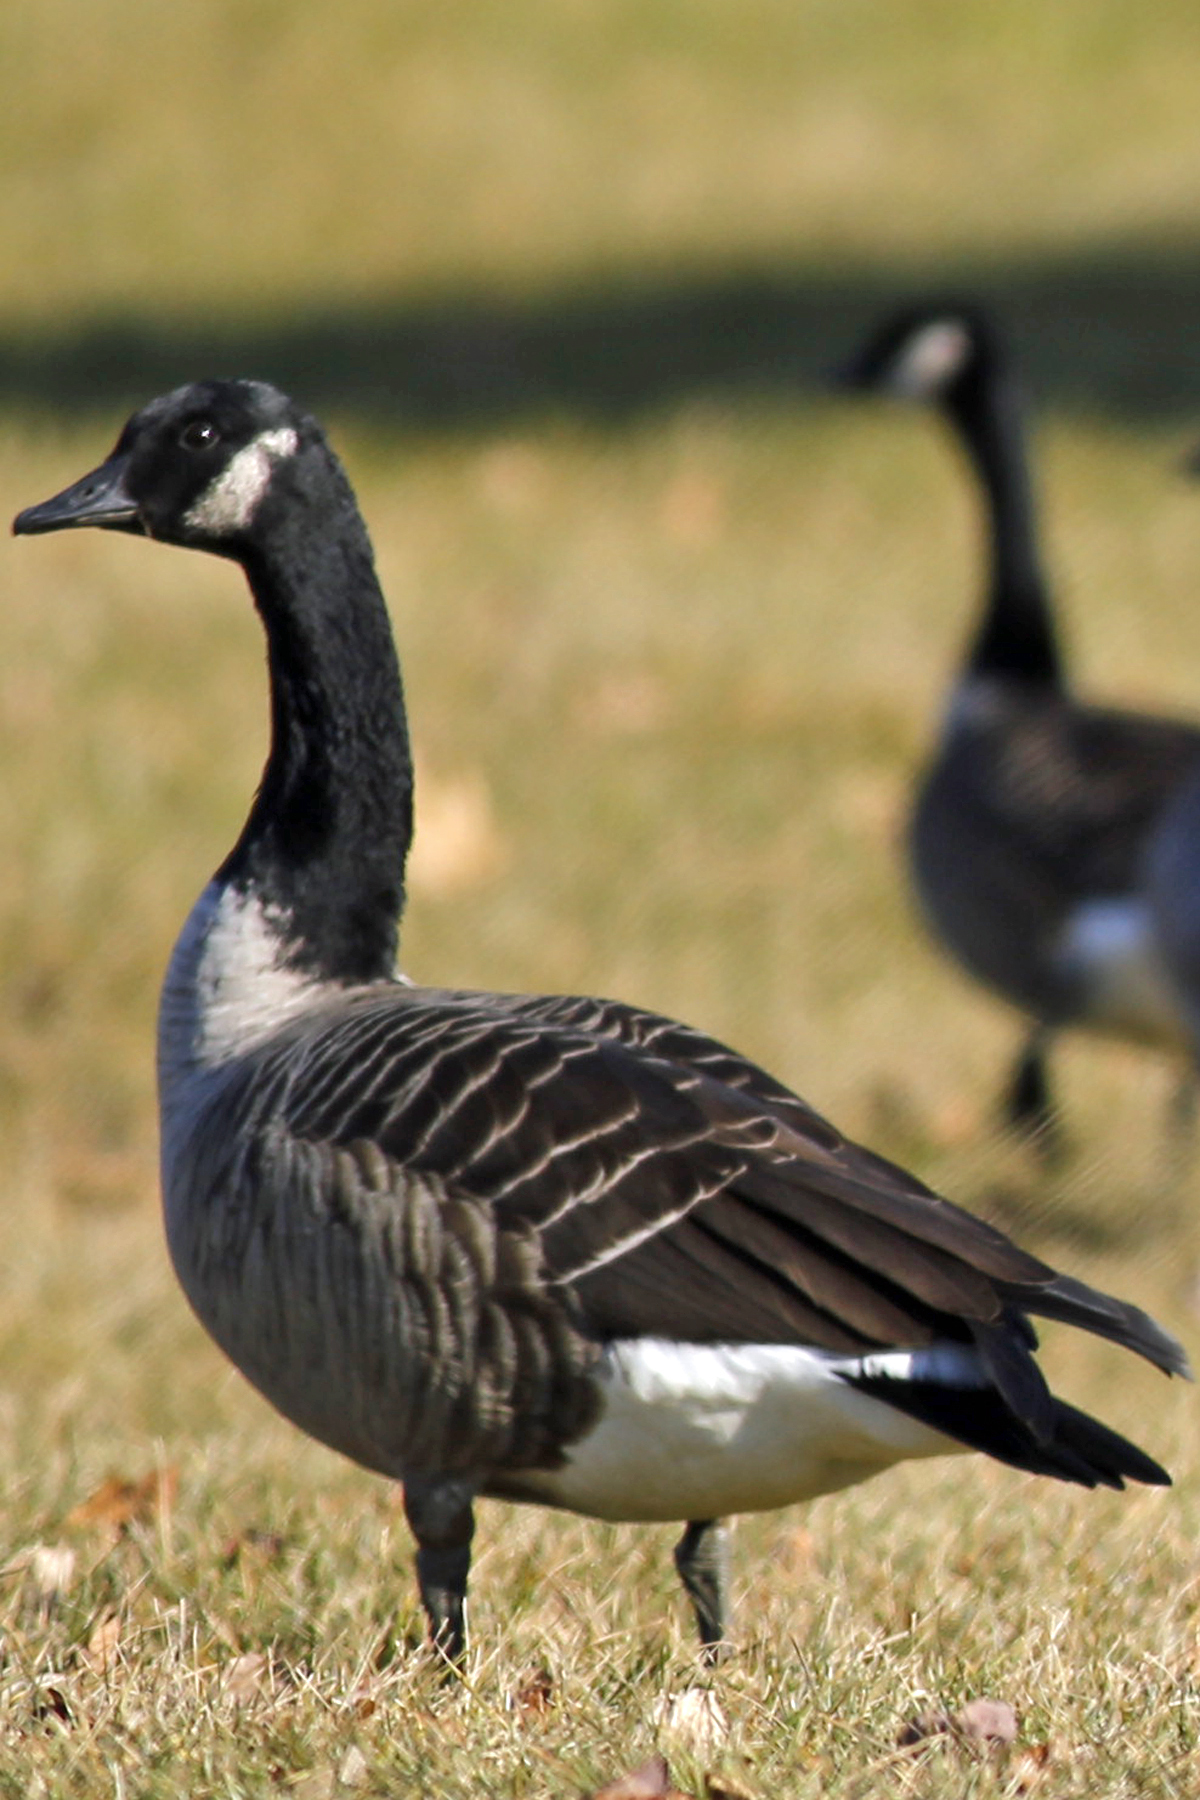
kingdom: Animalia
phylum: Chordata
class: Aves
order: Anseriformes
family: Anatidae
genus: Branta
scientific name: Branta canadensis
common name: Canada goose
